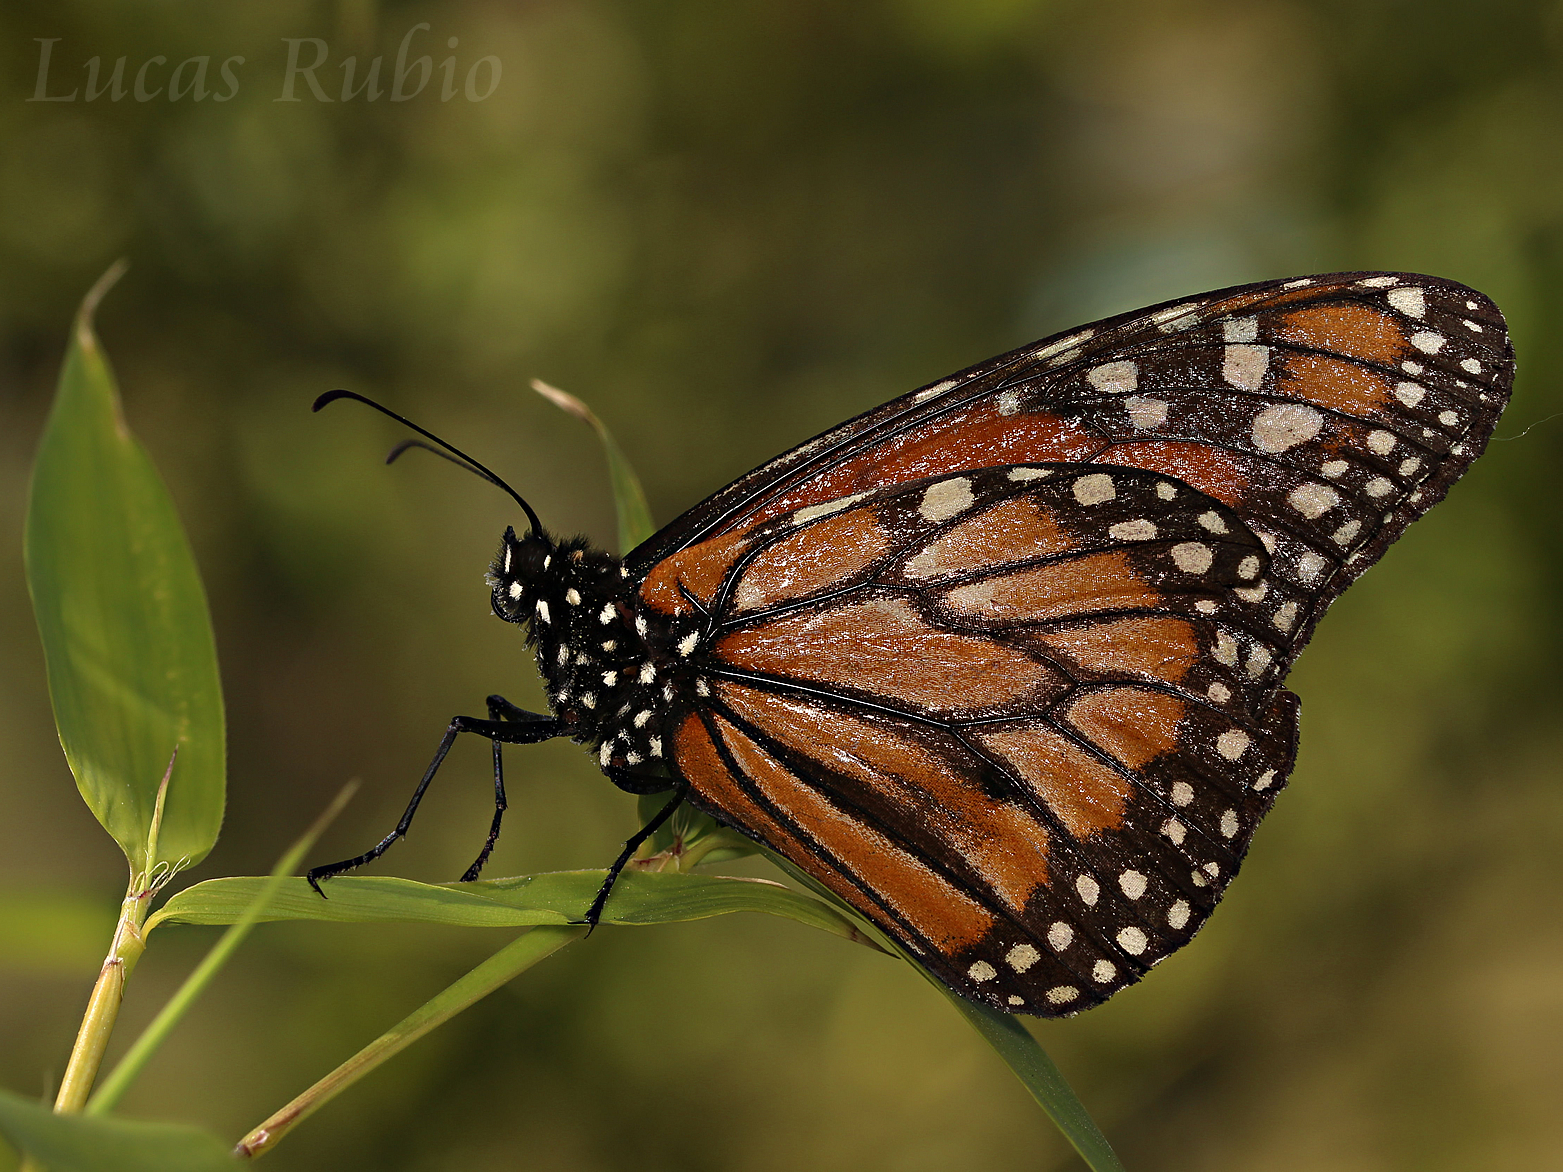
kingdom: Animalia
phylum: Arthropoda
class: Insecta
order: Lepidoptera
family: Nymphalidae
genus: Danaus
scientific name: Danaus erippus
